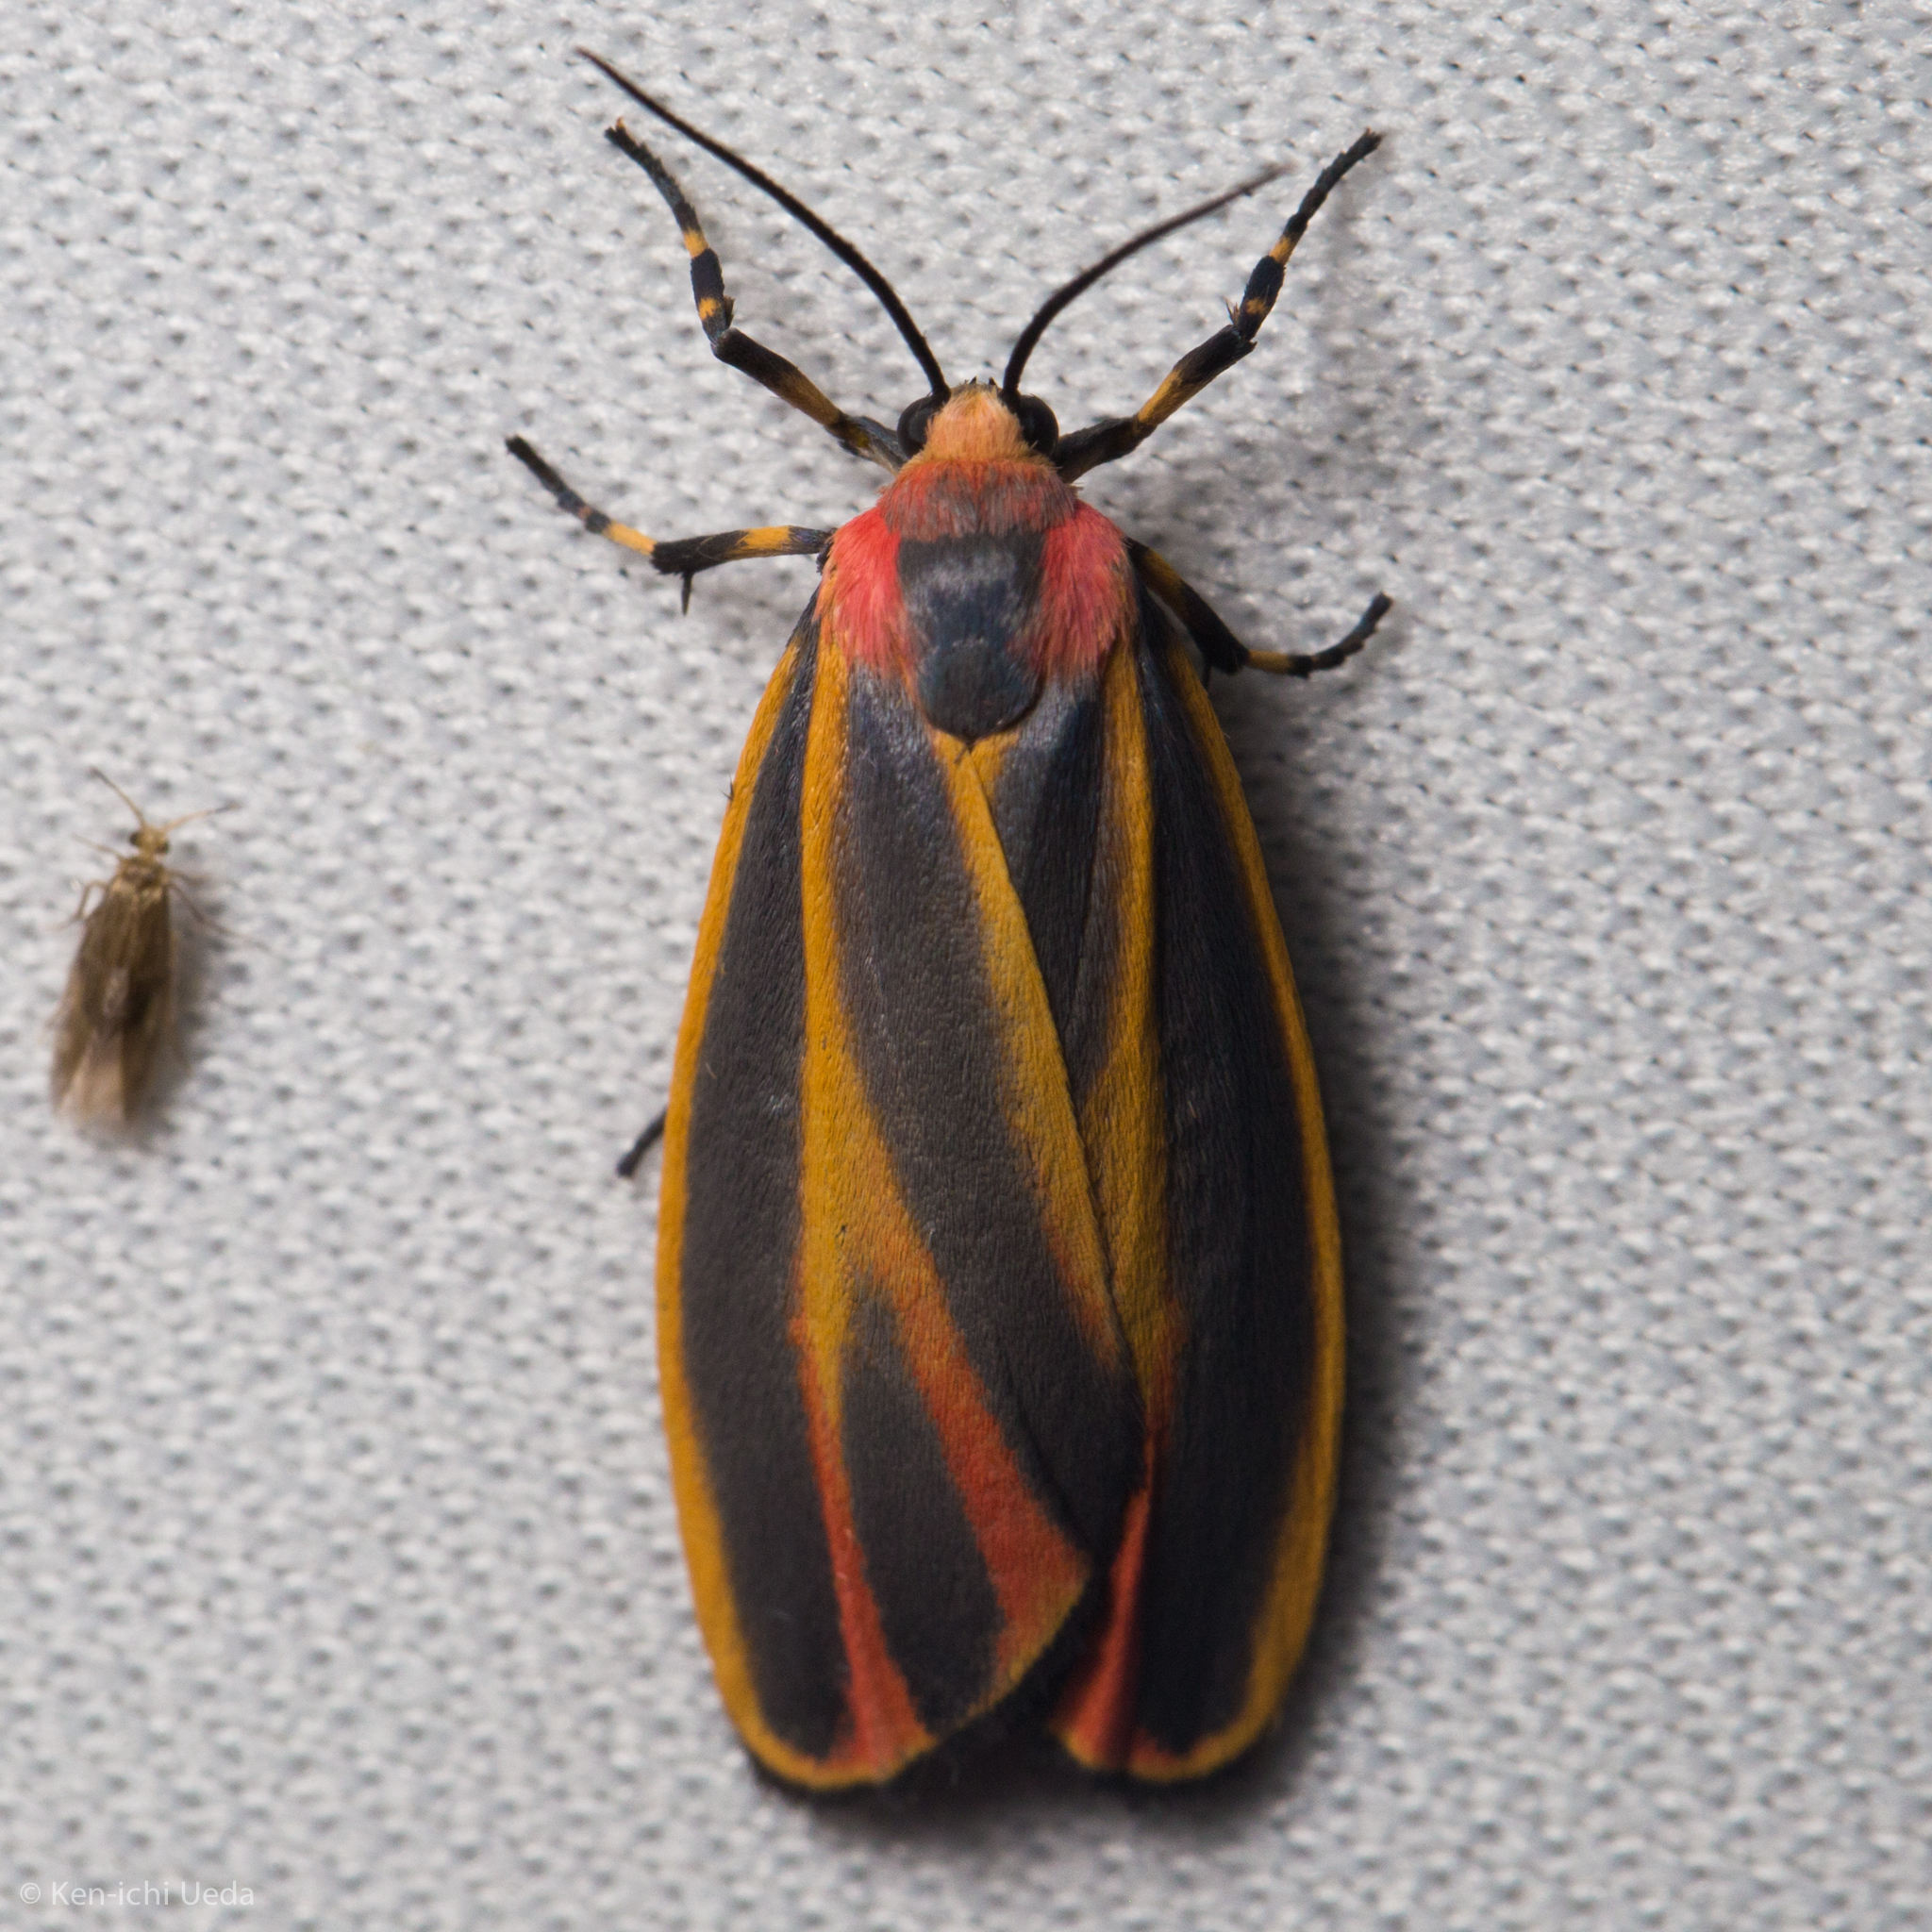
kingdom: Animalia
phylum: Arthropoda
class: Insecta
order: Lepidoptera
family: Erebidae
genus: Hypoprepia
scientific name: Hypoprepia fucosa
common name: Painted lichen moth
